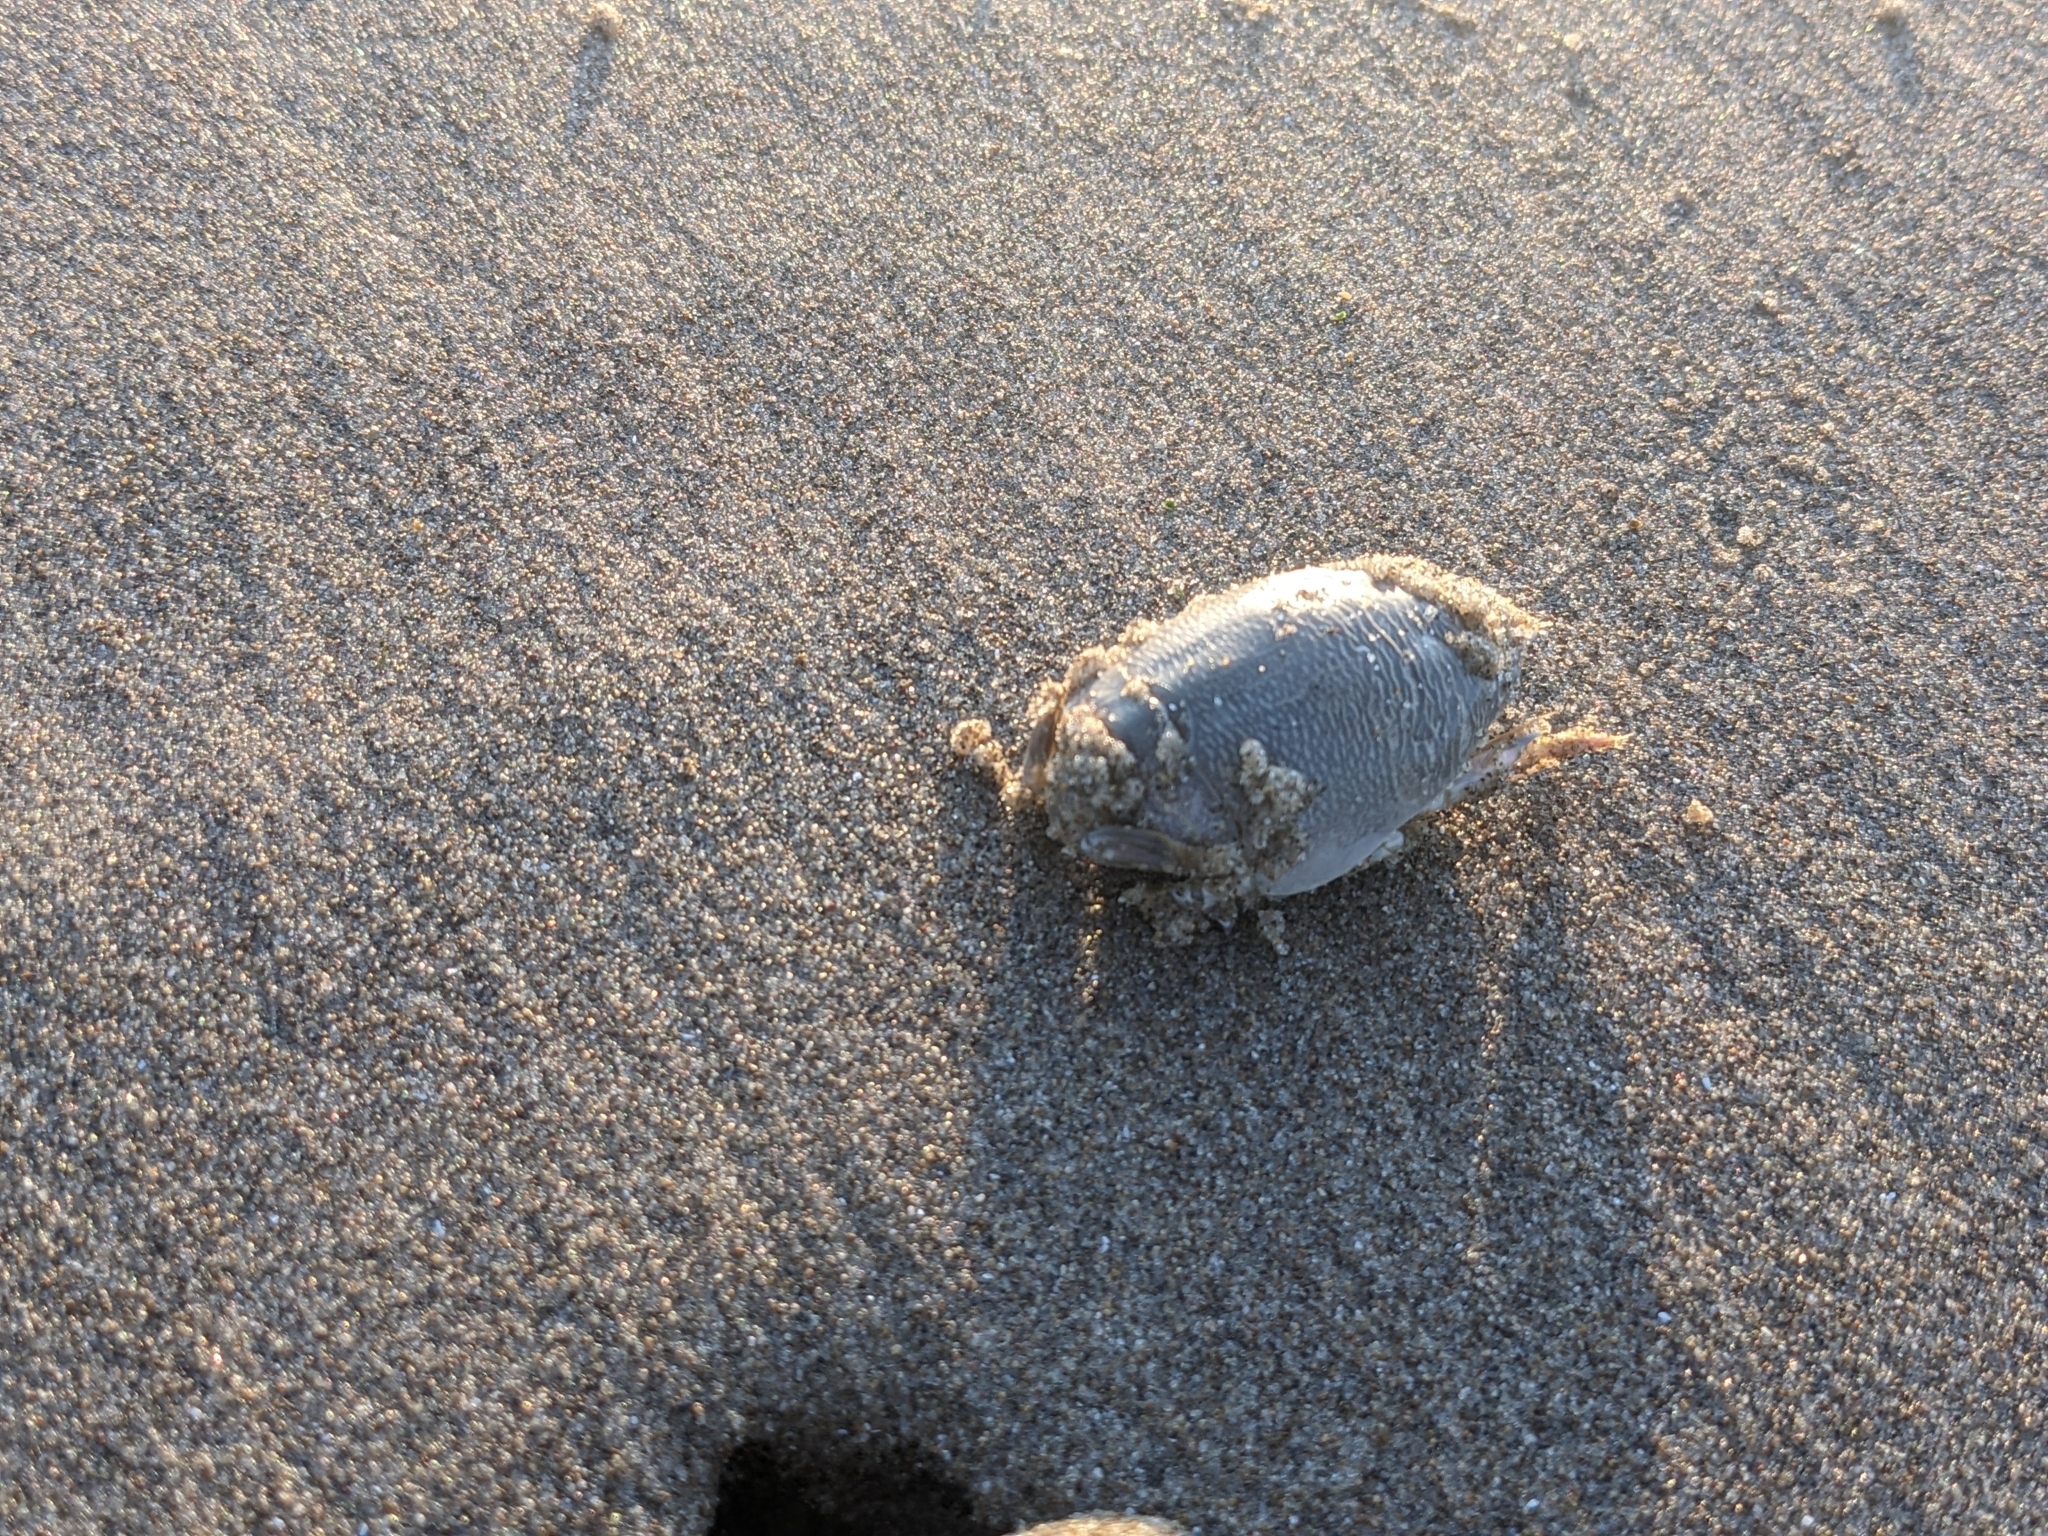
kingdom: Animalia
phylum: Arthropoda
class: Malacostraca
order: Decapoda
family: Hippidae
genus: Emerita
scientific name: Emerita analoga
